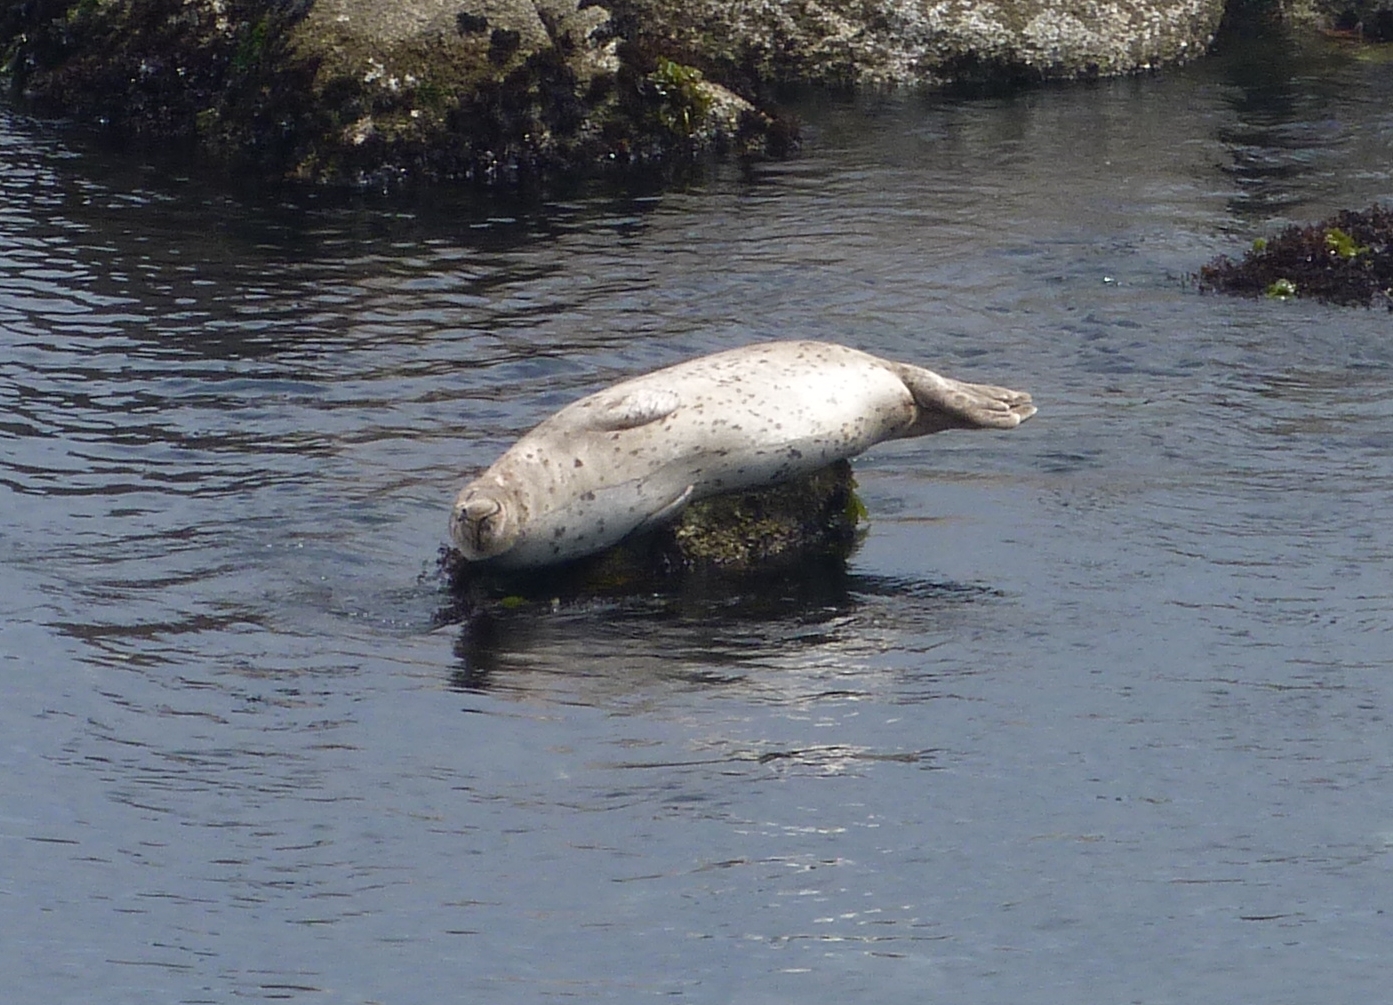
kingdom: Animalia
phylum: Chordata
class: Mammalia
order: Carnivora
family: Phocidae
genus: Phoca
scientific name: Phoca vitulina
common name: Harbor seal
